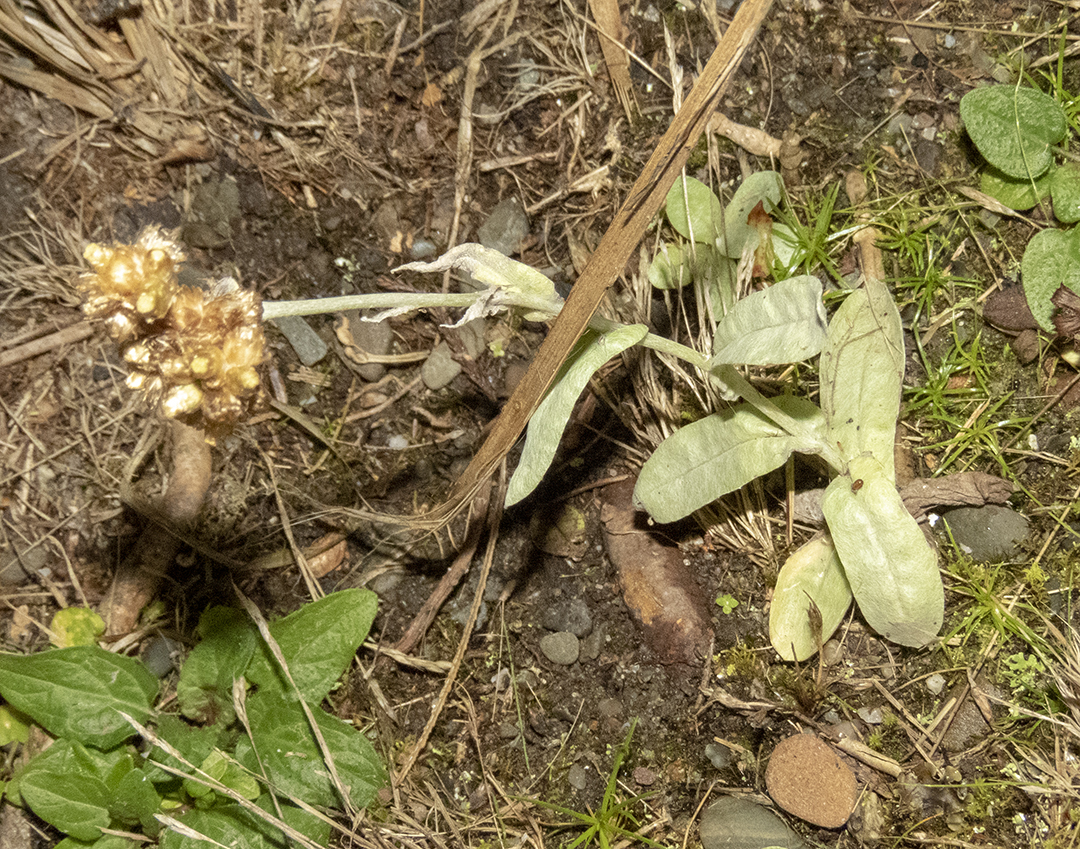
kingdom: Plantae
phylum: Tracheophyta
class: Magnoliopsida
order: Asterales
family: Asteraceae
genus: Helichrysum
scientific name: Helichrysum luteoalbum
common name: Daisy
